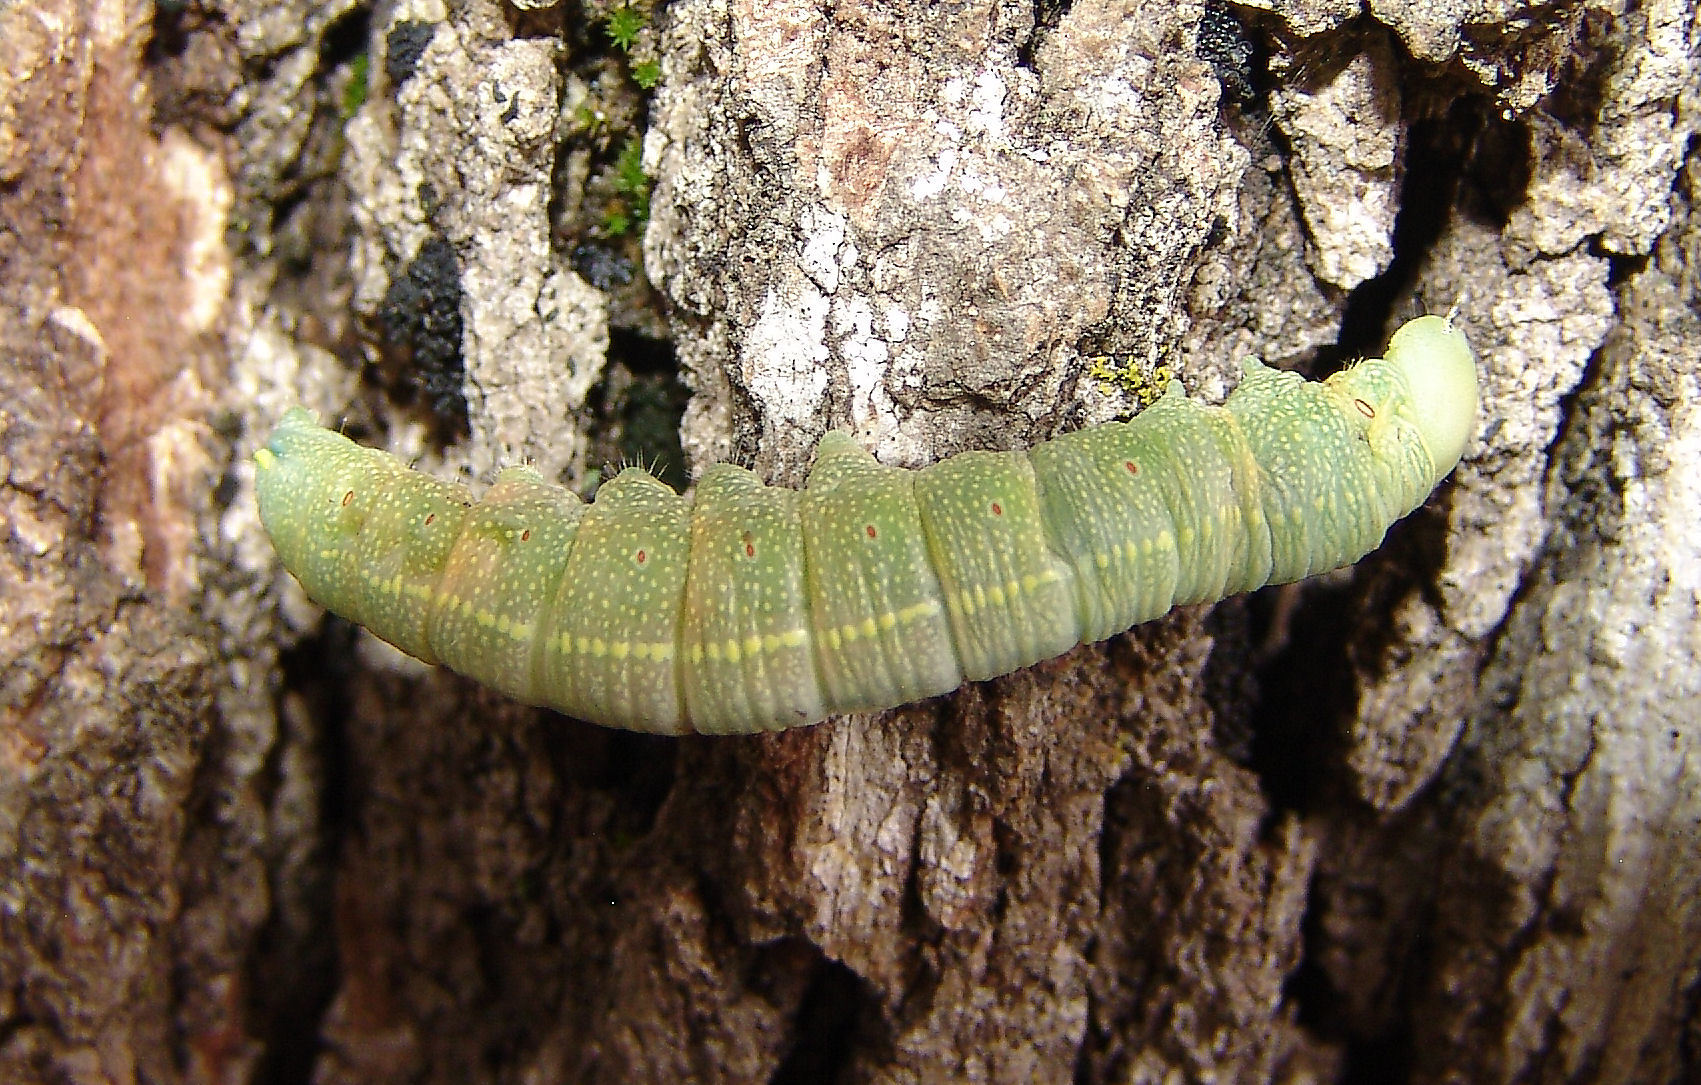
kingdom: Animalia
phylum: Arthropoda
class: Insecta
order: Lepidoptera
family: Notodontidae
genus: Nadata
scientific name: Nadata gibbosa
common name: White-dotted prominent
